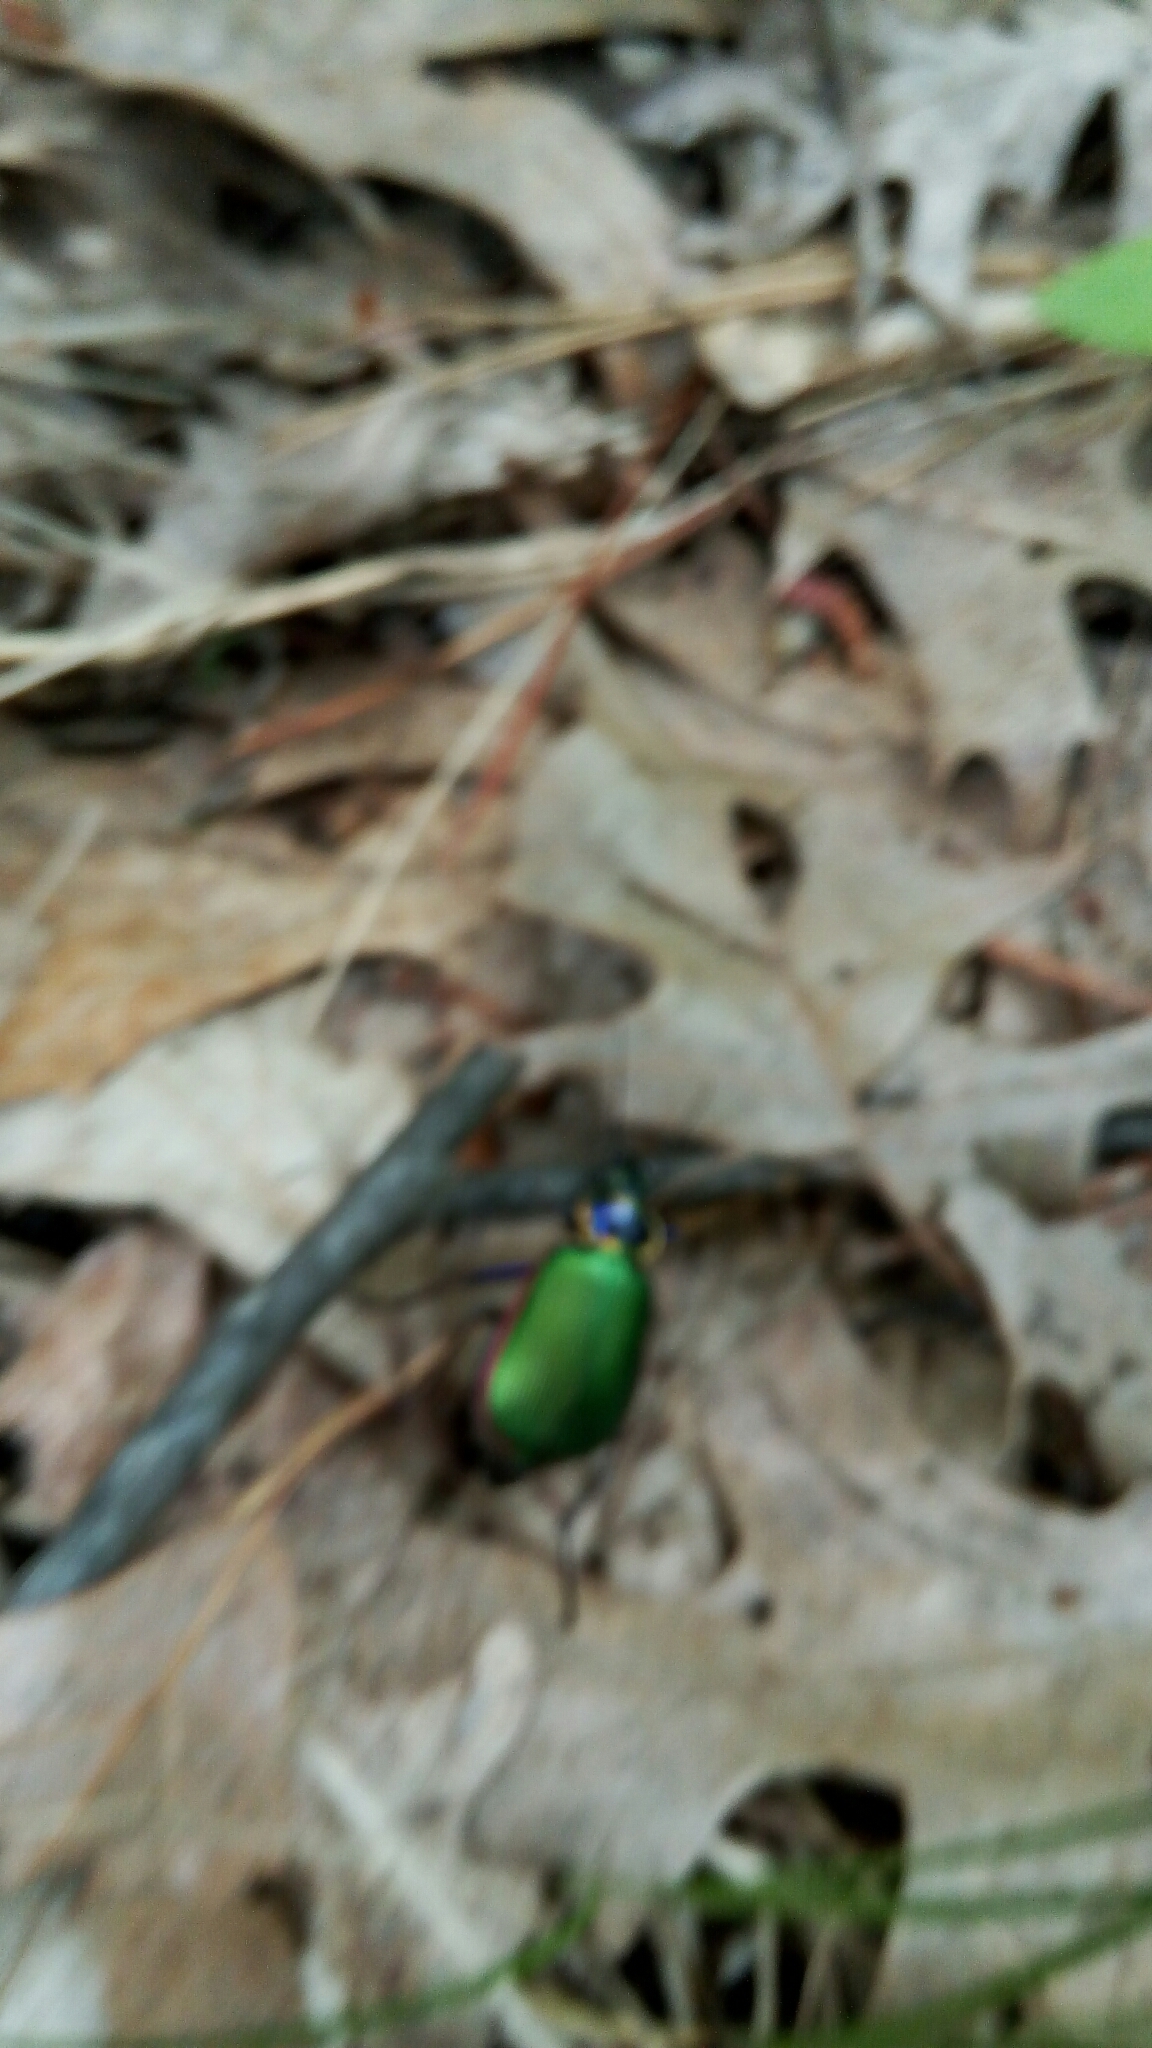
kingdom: Animalia
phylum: Arthropoda
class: Insecta
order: Coleoptera
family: Carabidae
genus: Calosoma
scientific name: Calosoma scrutator
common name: Fiery searcher beetle
